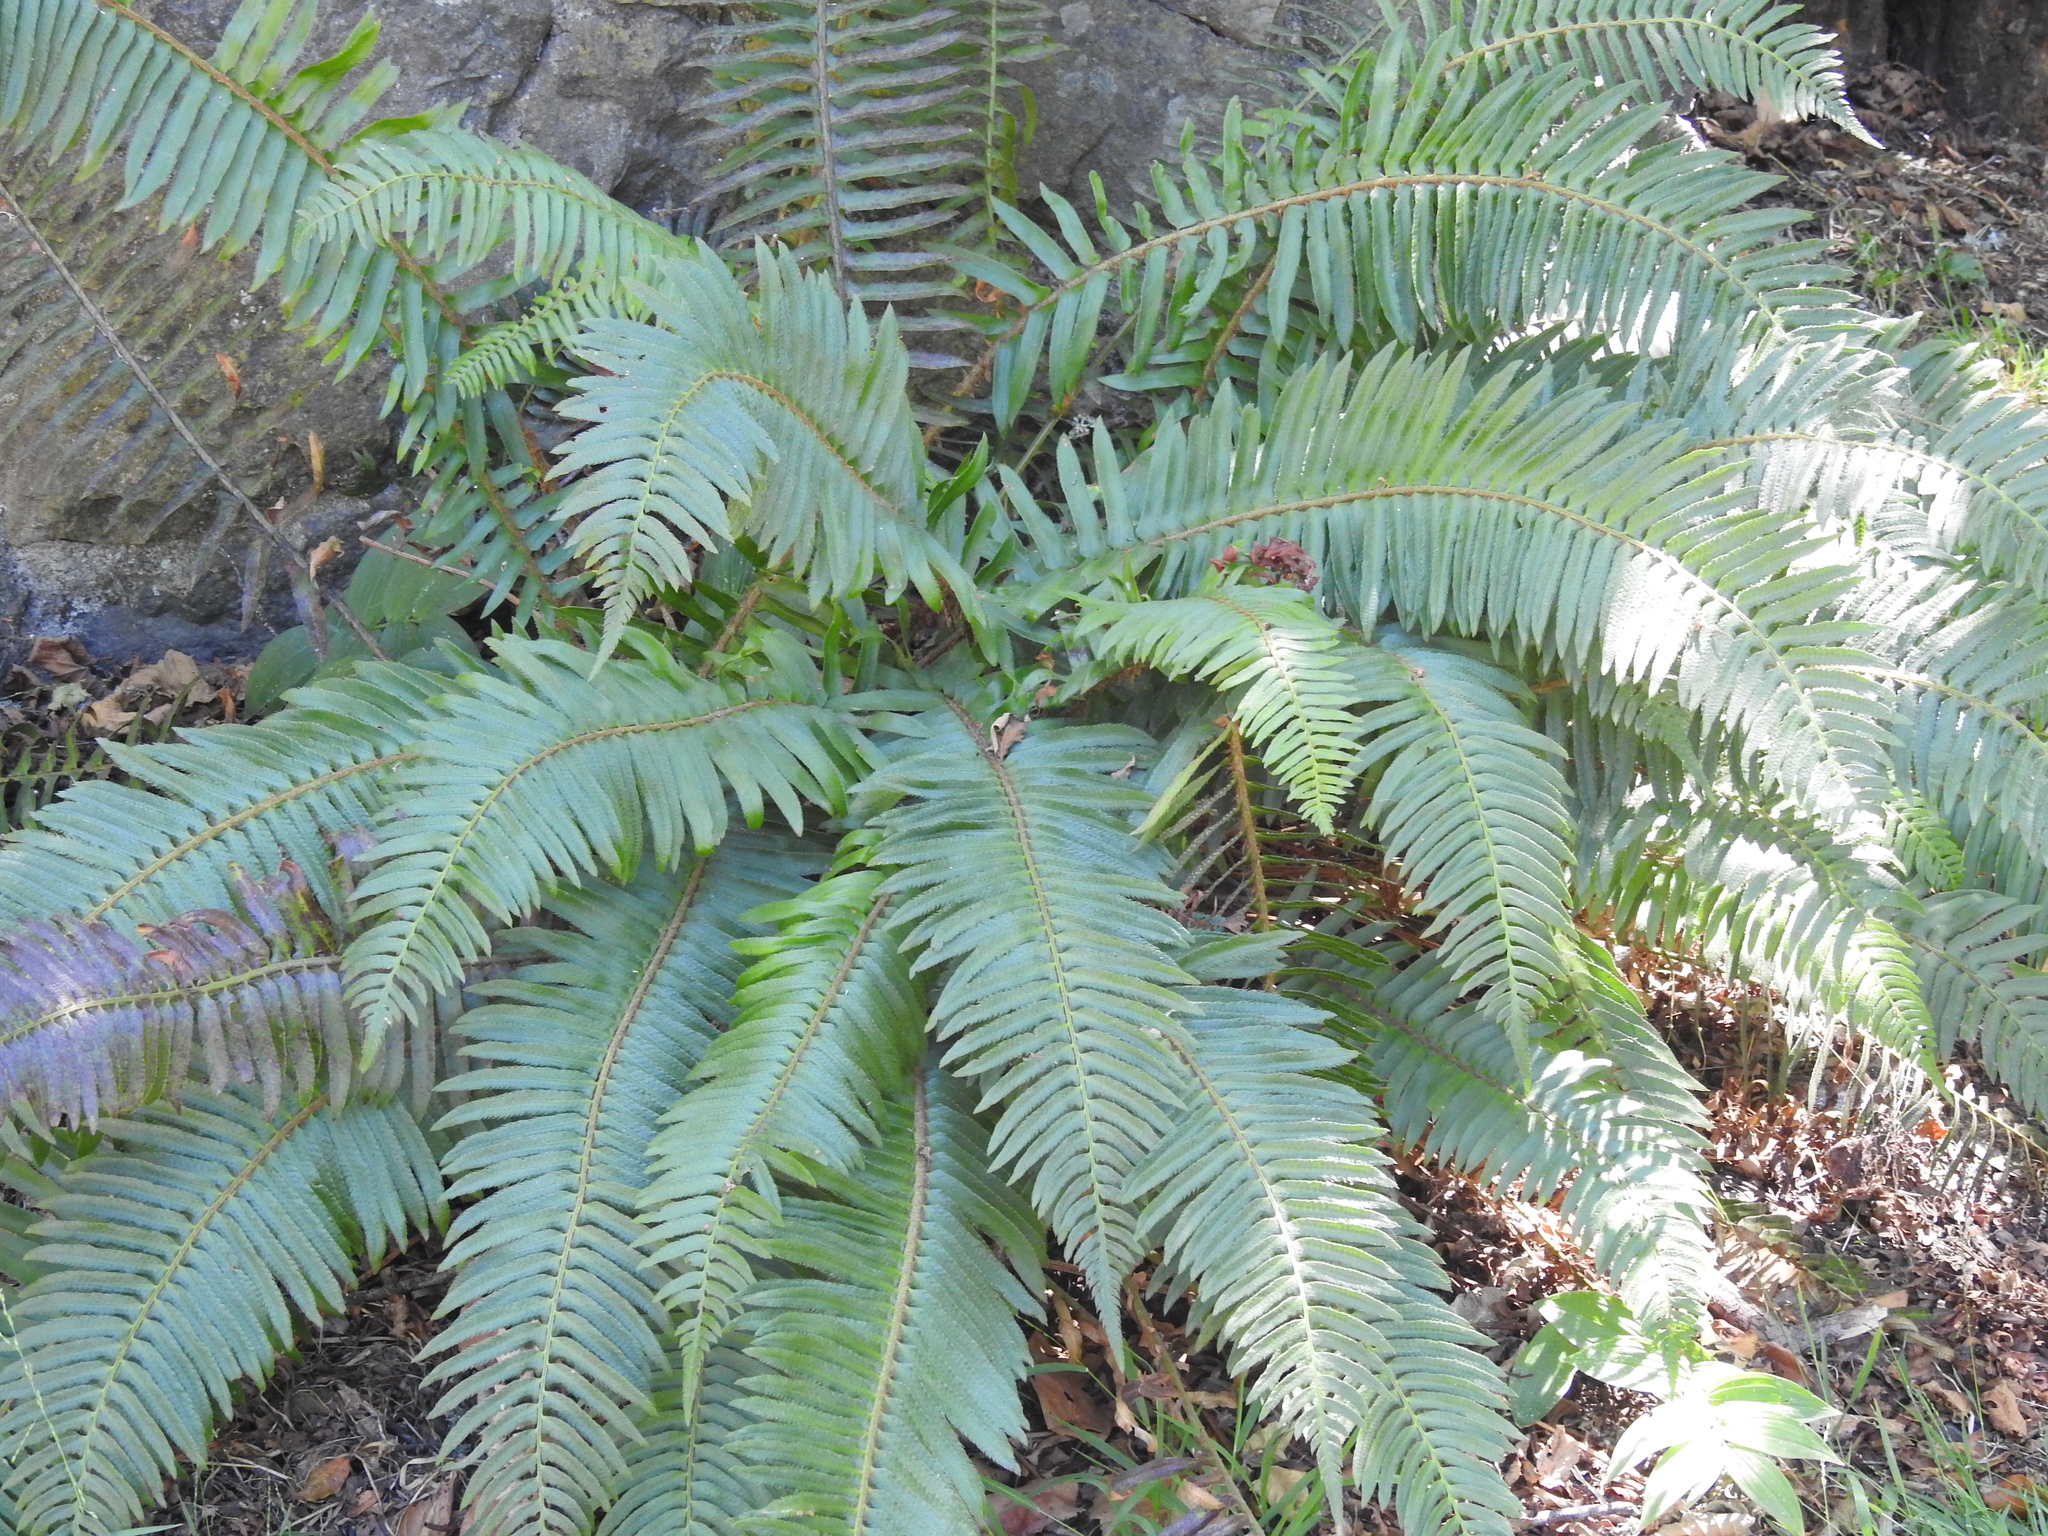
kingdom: Plantae
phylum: Tracheophyta
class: Polypodiopsida
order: Polypodiales
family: Dryopteridaceae
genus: Polystichum
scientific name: Polystichum munitum
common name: Western sword-fern
